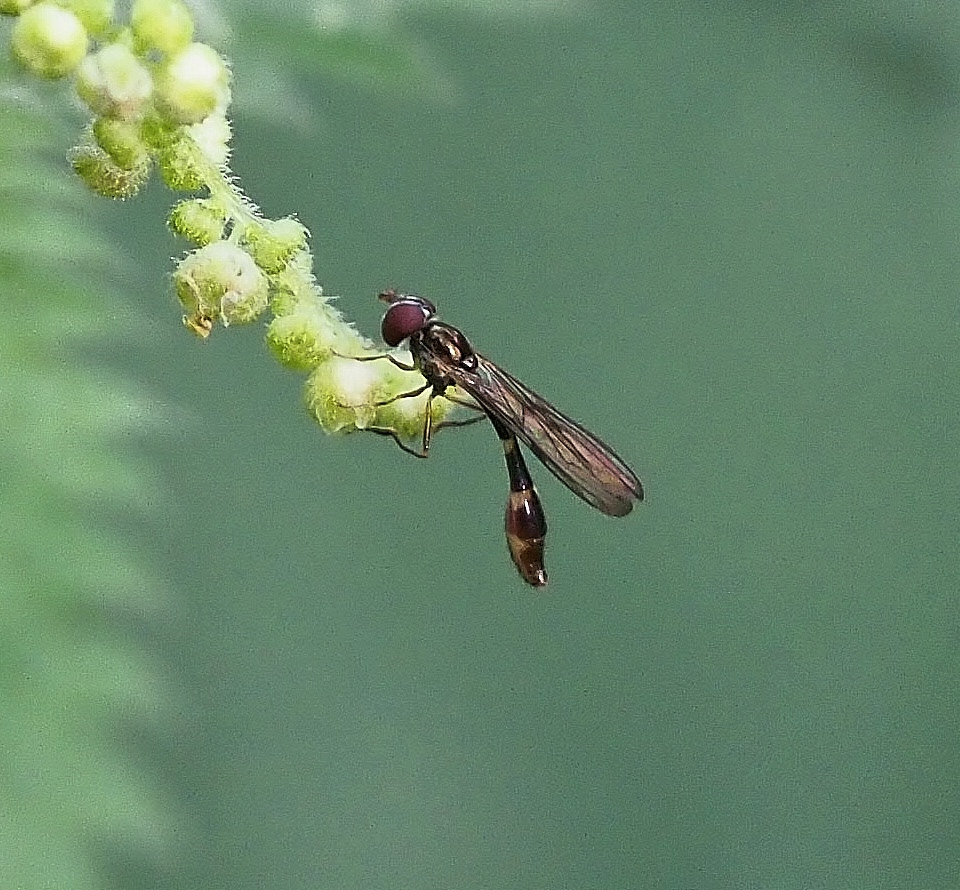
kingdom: Animalia
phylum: Arthropoda
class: Insecta
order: Diptera
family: Syrphidae
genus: Baccha
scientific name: Baccha elongata
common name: Common dainty
